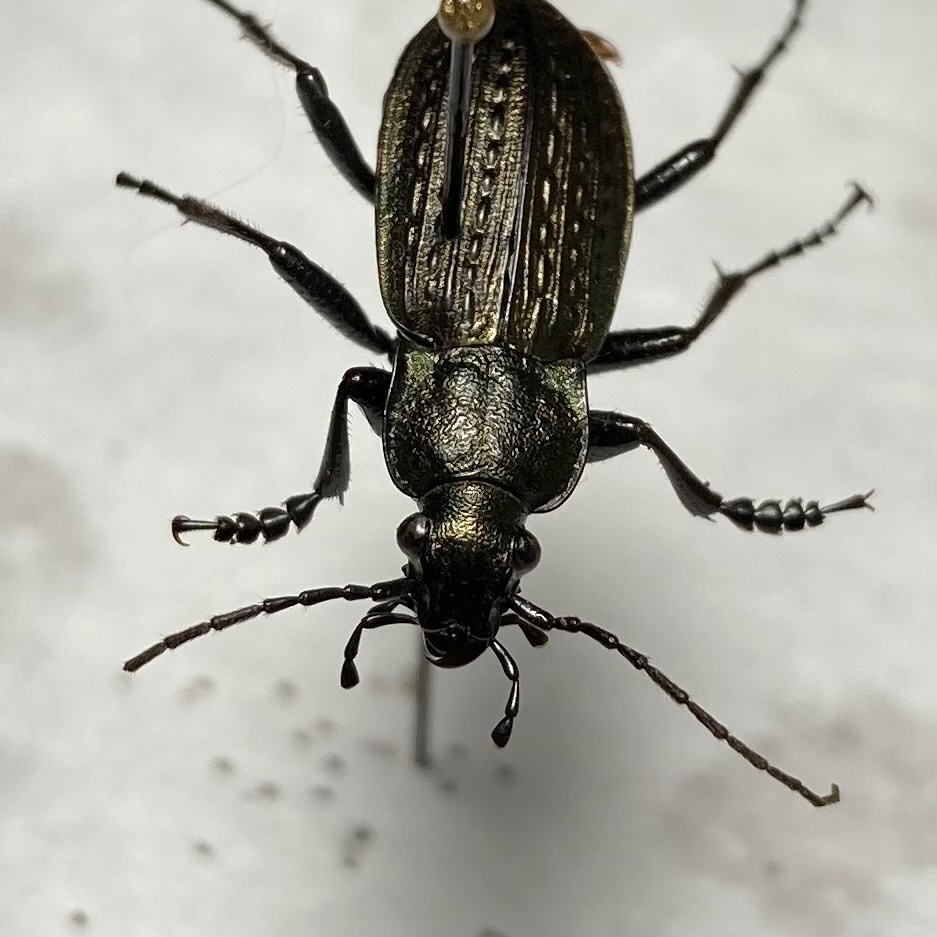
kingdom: Animalia
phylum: Arthropoda
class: Insecta
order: Coleoptera
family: Carabidae
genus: Carabus
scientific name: Carabus granulatus
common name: Granulate ground beetle
